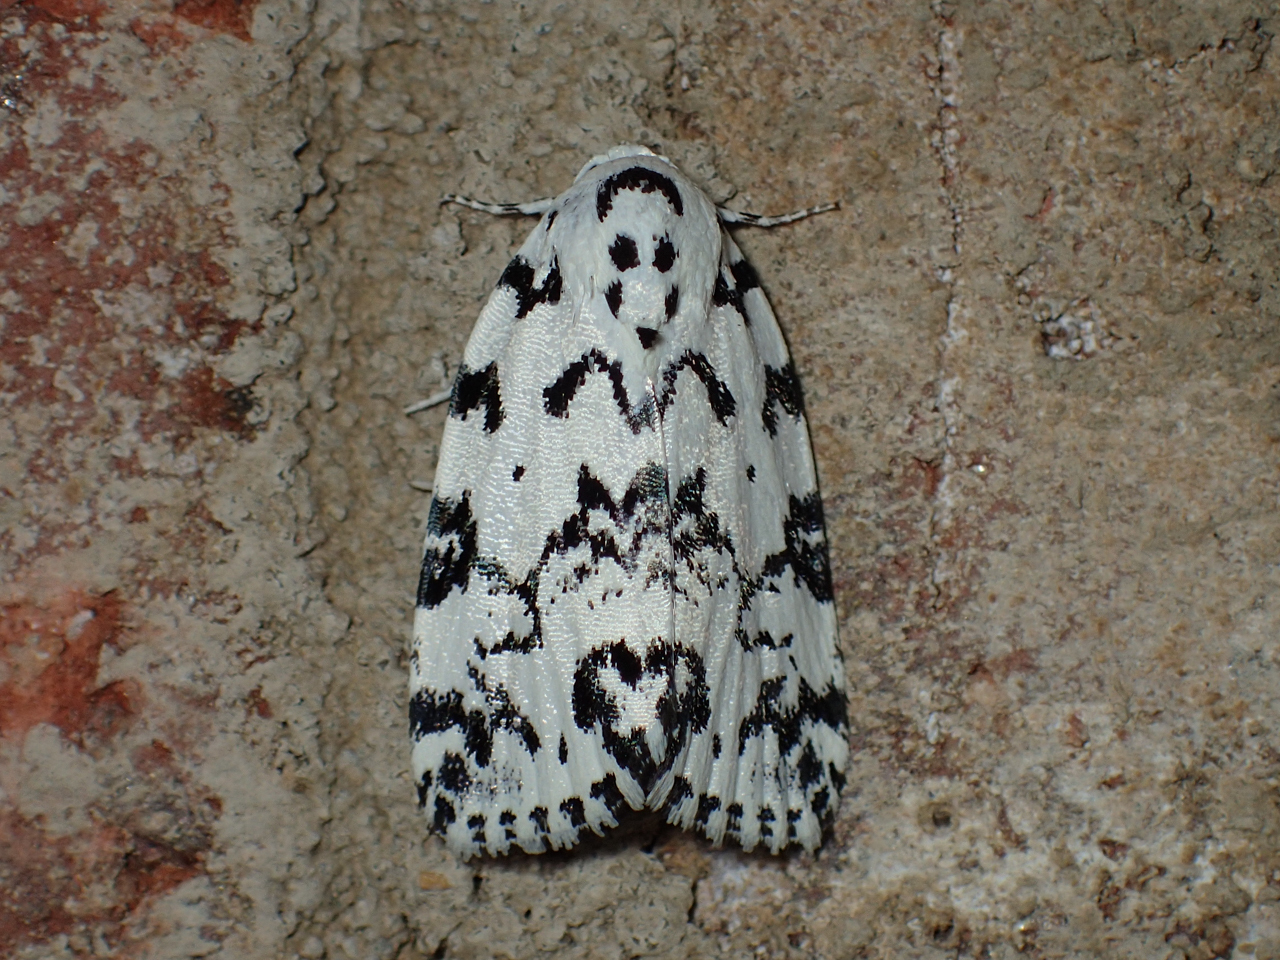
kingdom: Animalia
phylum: Arthropoda
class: Insecta
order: Lepidoptera
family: Noctuidae
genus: Polygrammate
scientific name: Polygrammate hebraeicum
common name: Hebrew moth
